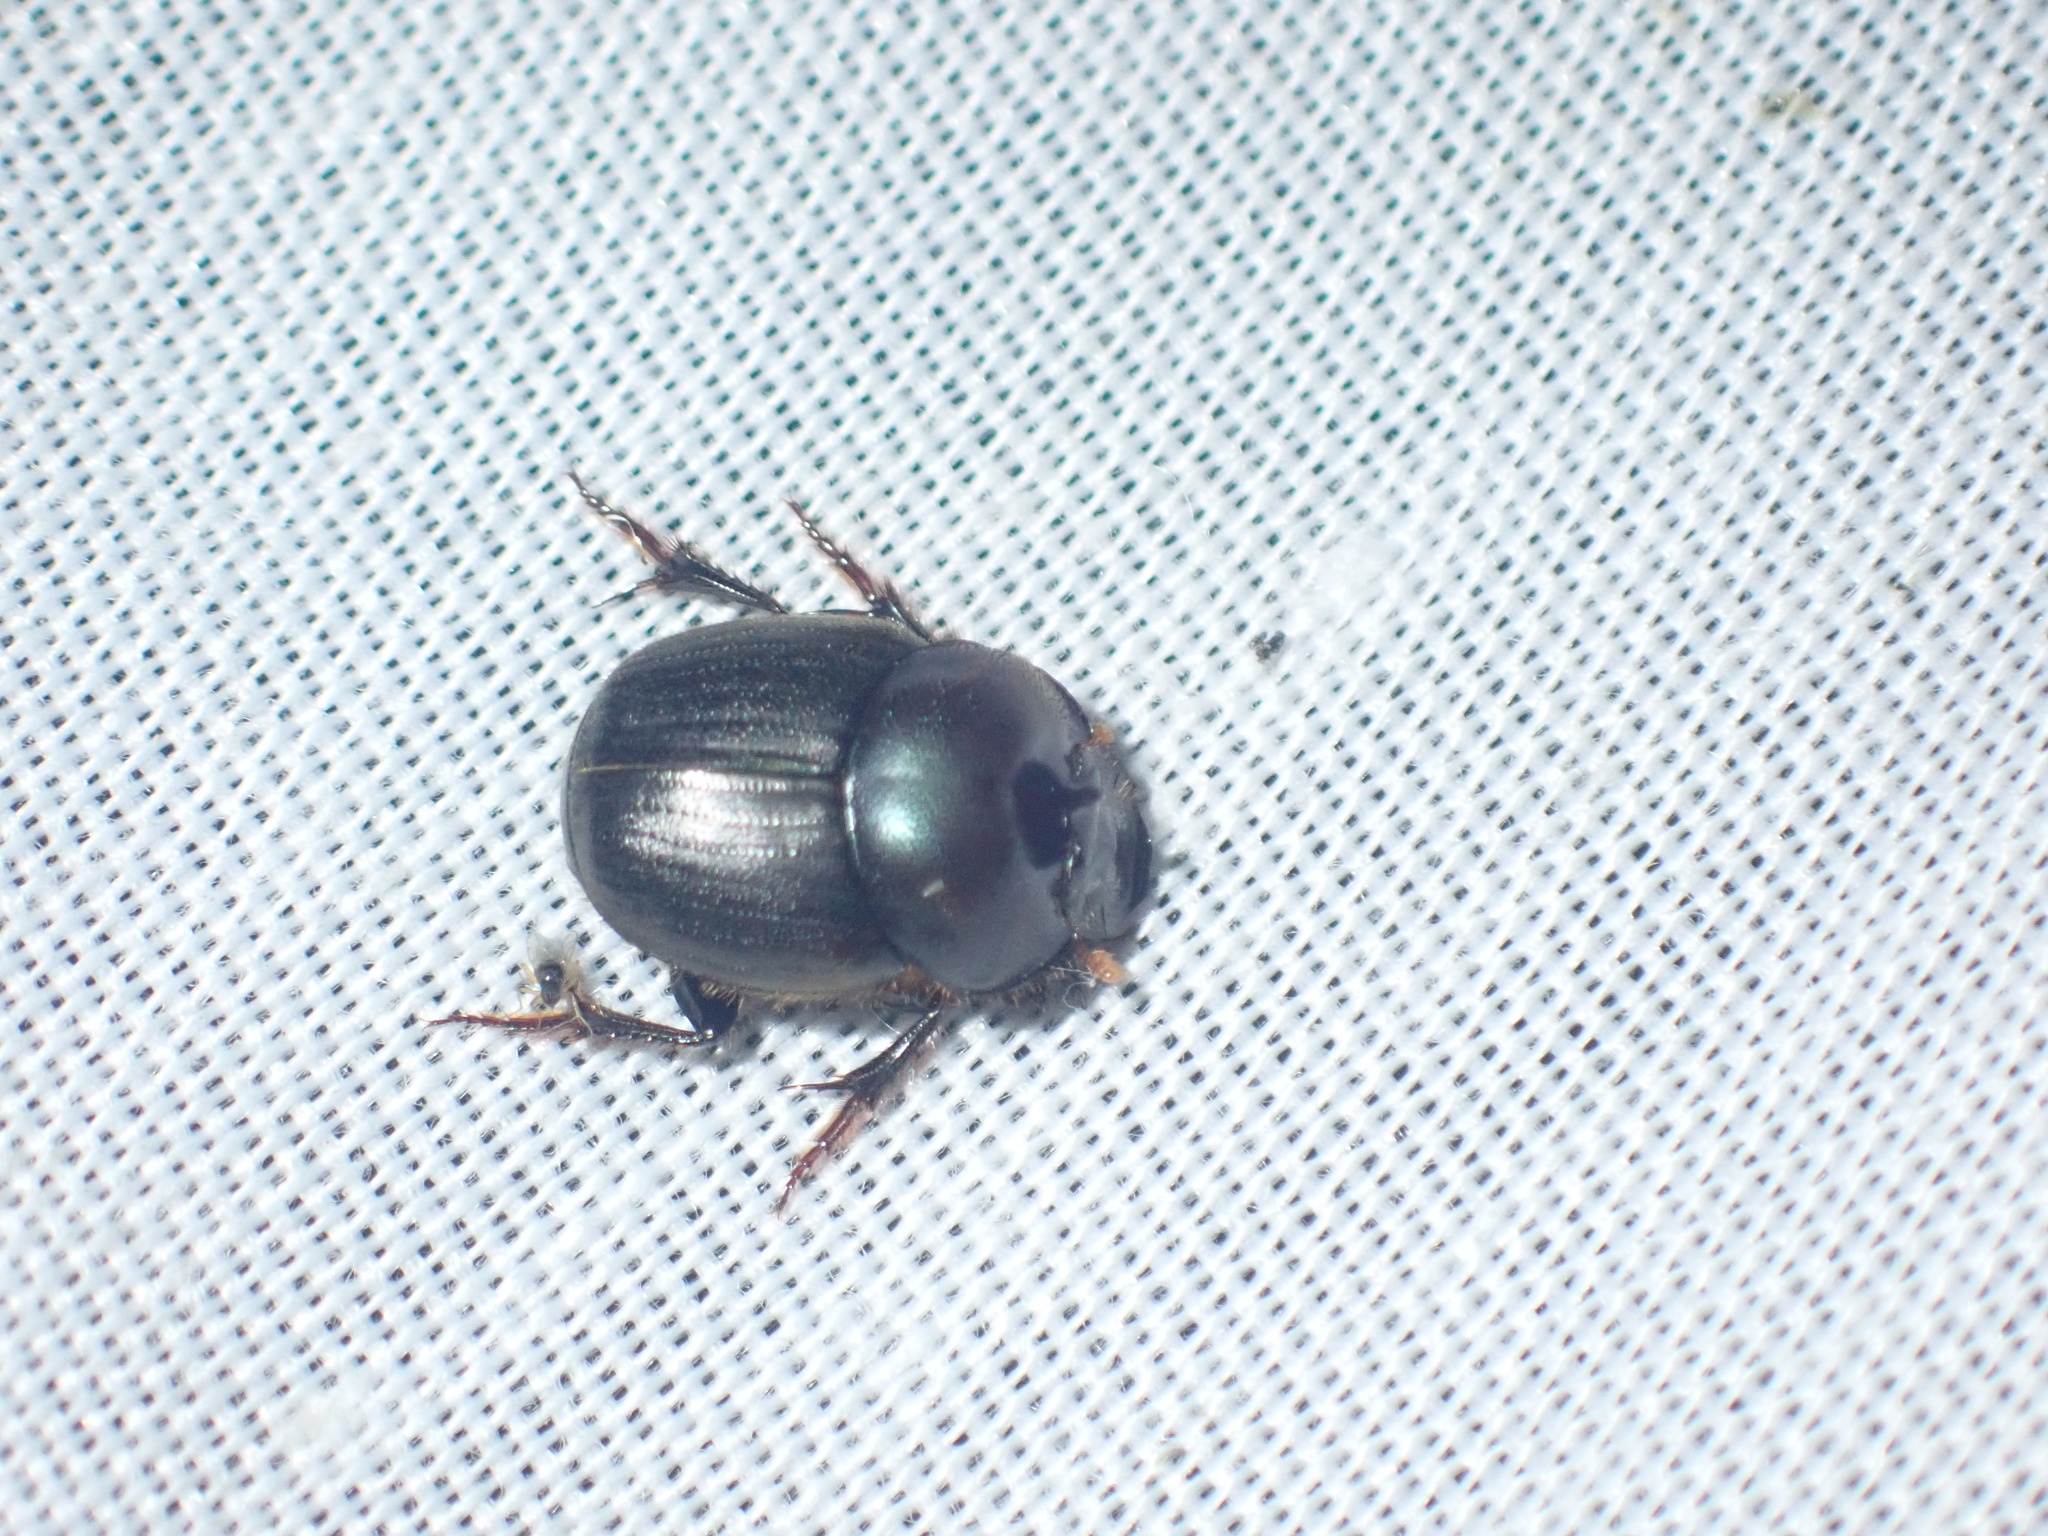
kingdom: Animalia
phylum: Arthropoda
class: Insecta
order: Coleoptera
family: Scarabaeidae
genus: Onthophagus
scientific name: Onthophagus deterrens
